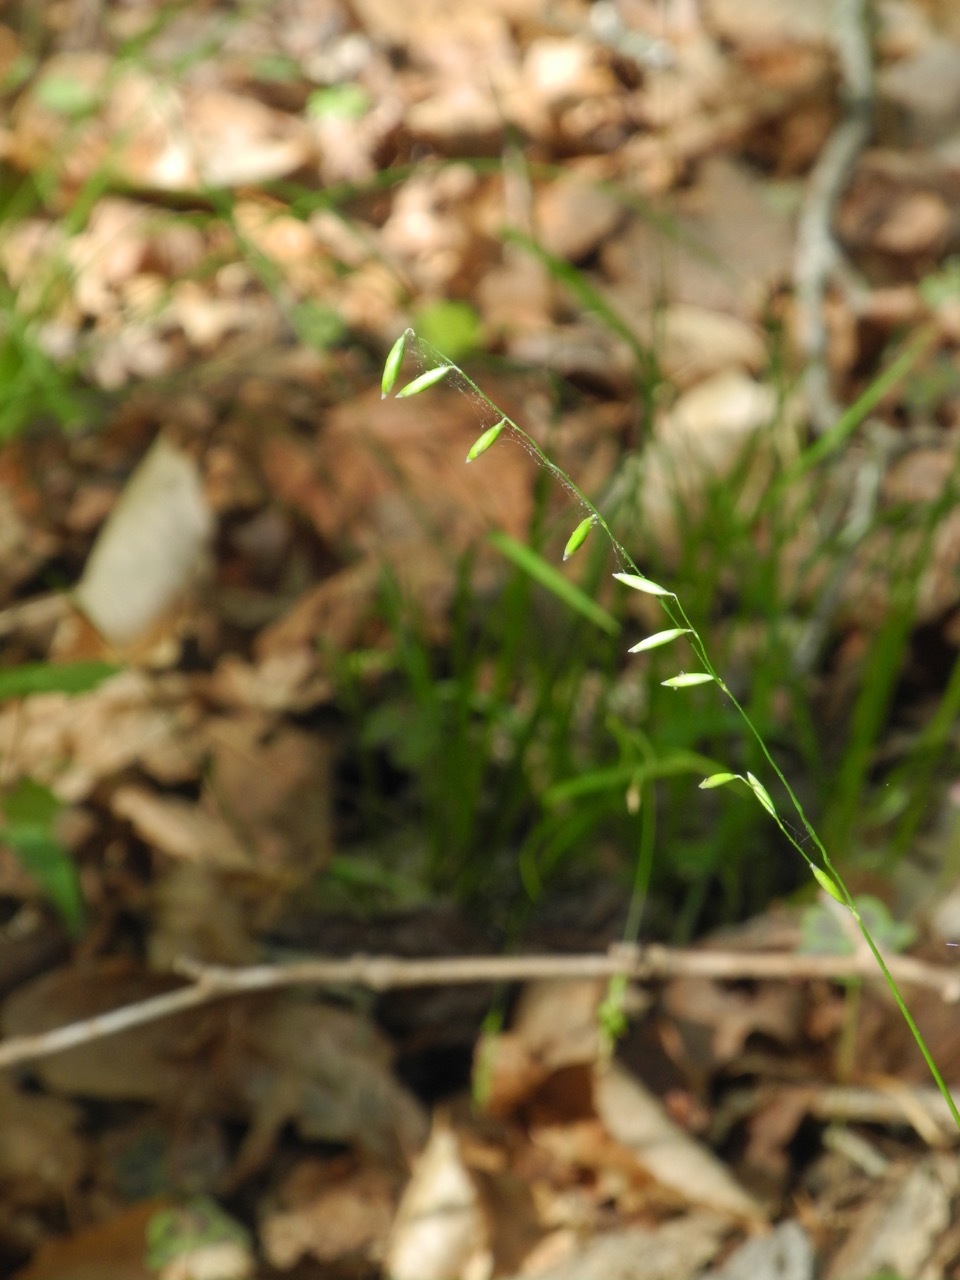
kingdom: Plantae
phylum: Tracheophyta
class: Liliopsida
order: Poales
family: Poaceae
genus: Melica
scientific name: Melica mutica
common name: Two-flower melic
